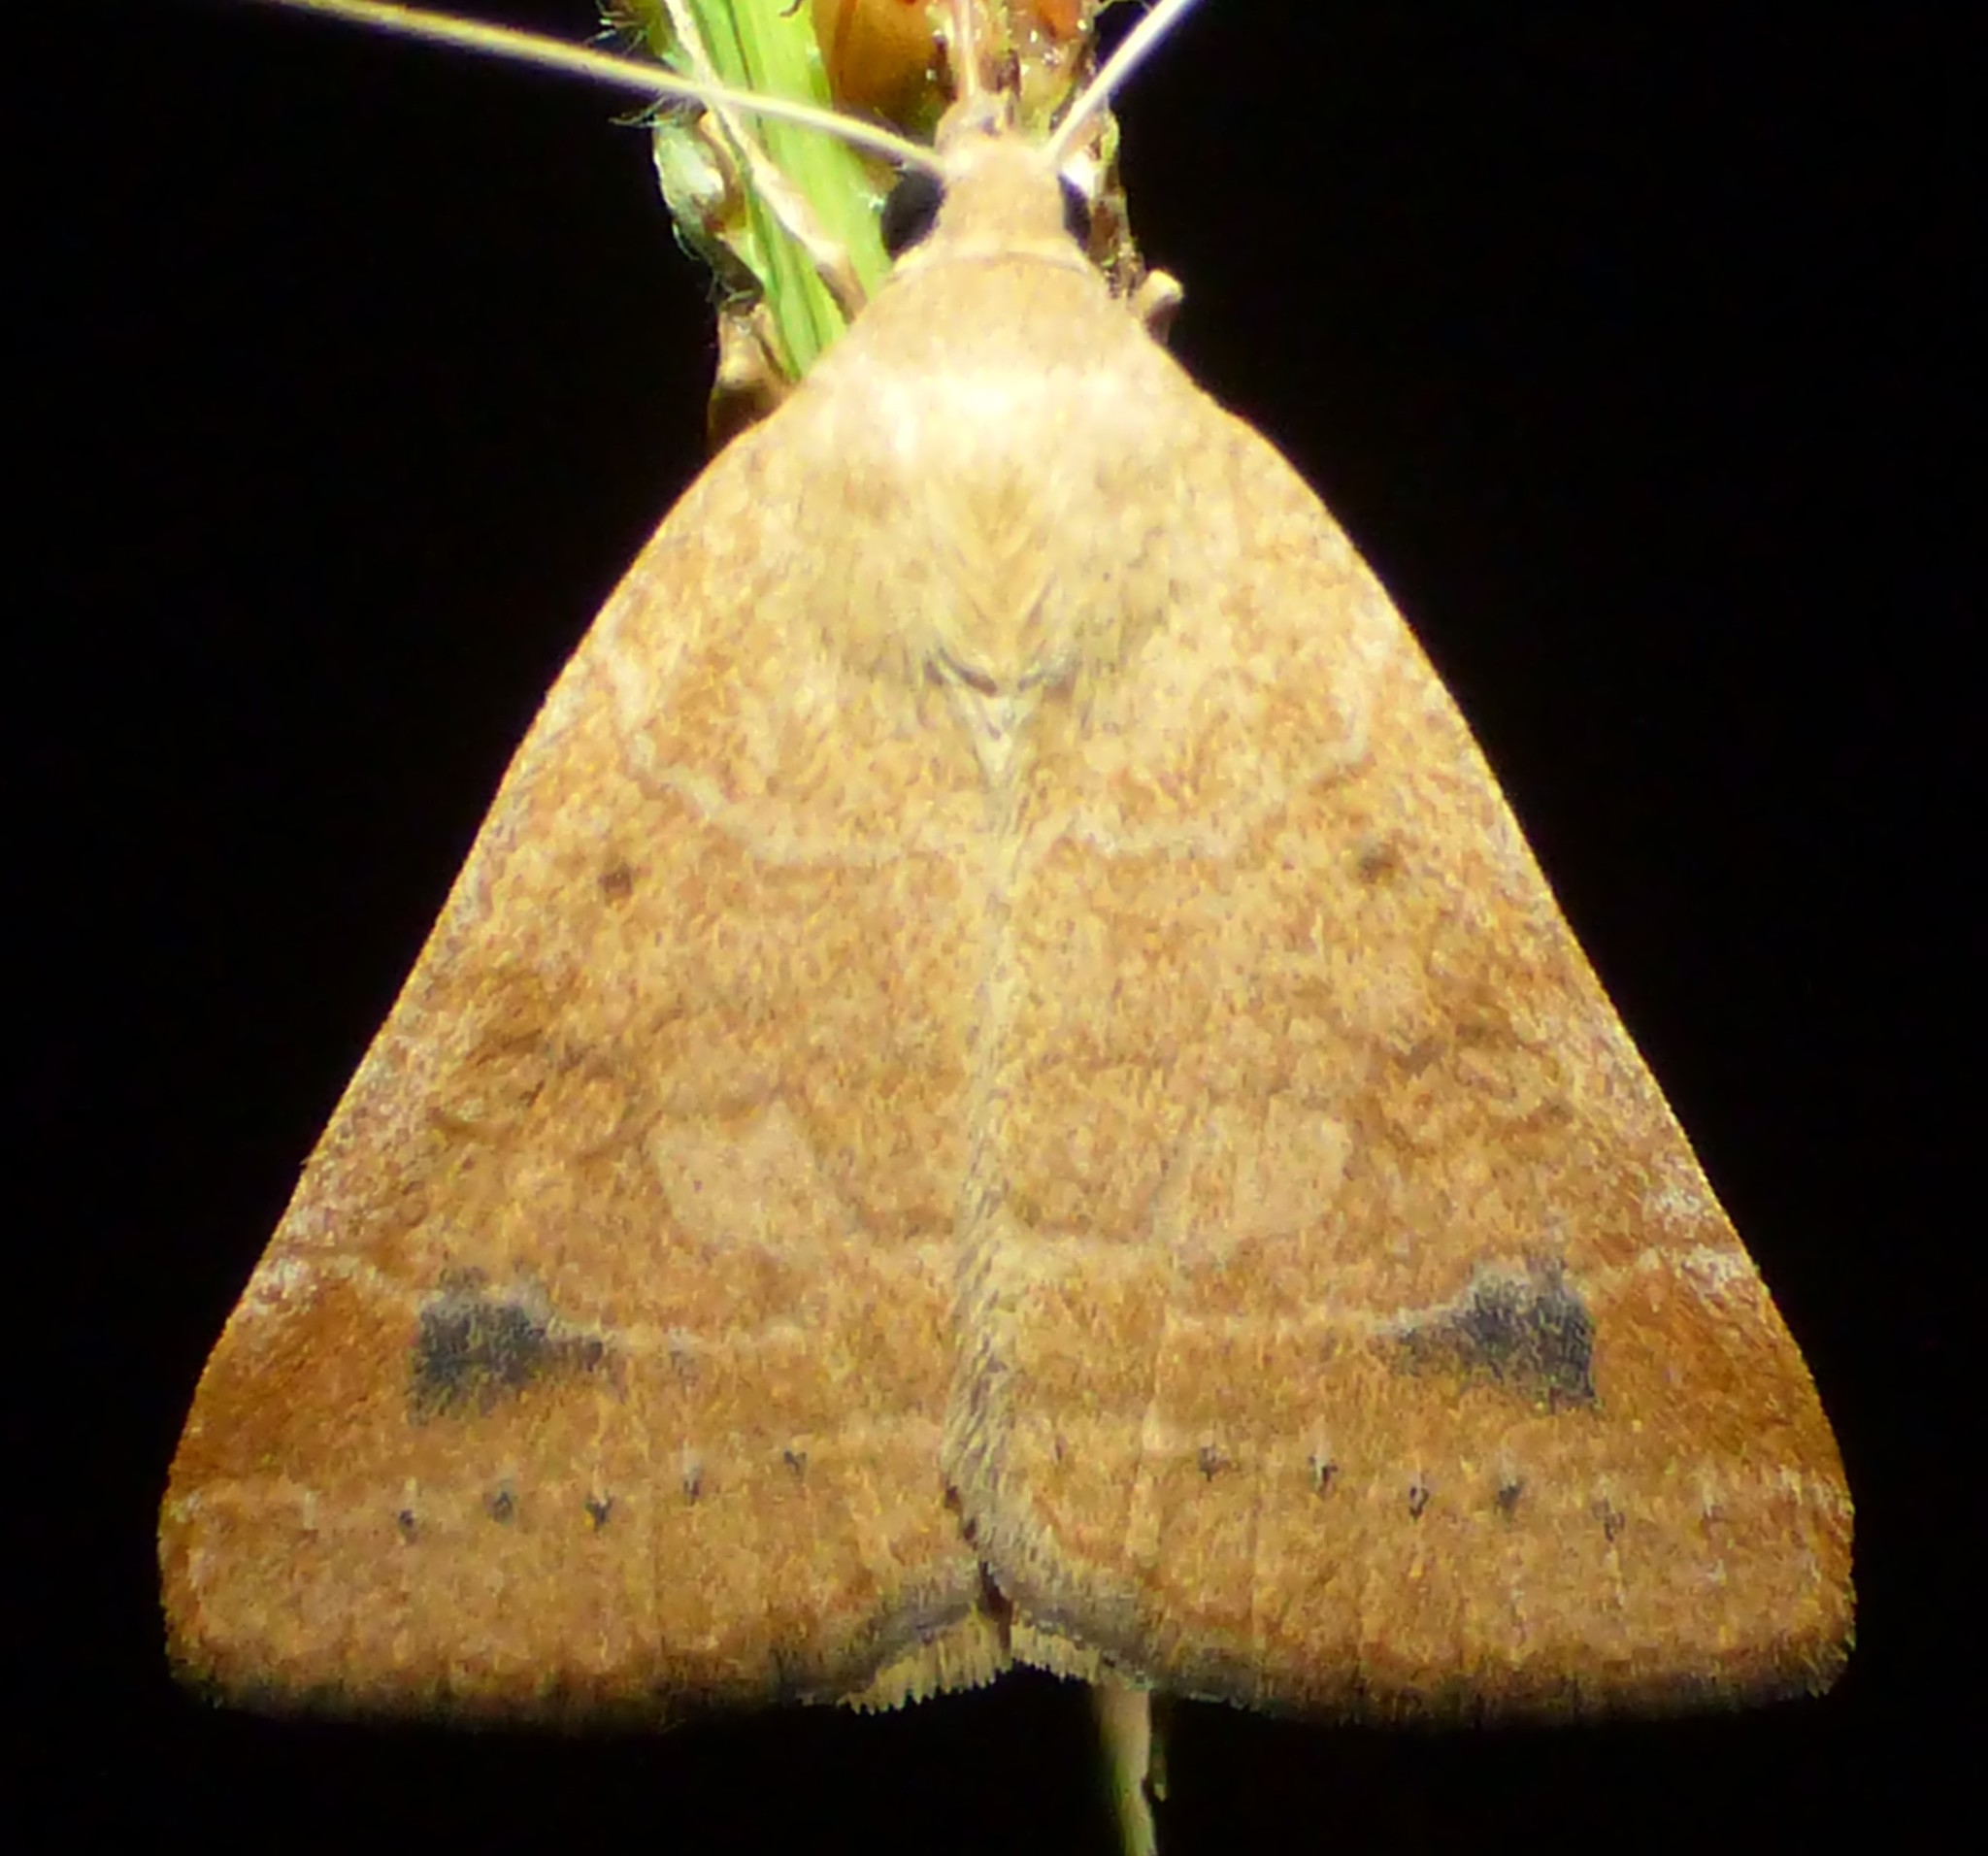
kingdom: Animalia
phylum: Arthropoda
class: Insecta
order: Lepidoptera
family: Erebidae
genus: Caenurgia
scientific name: Caenurgia chloropha
